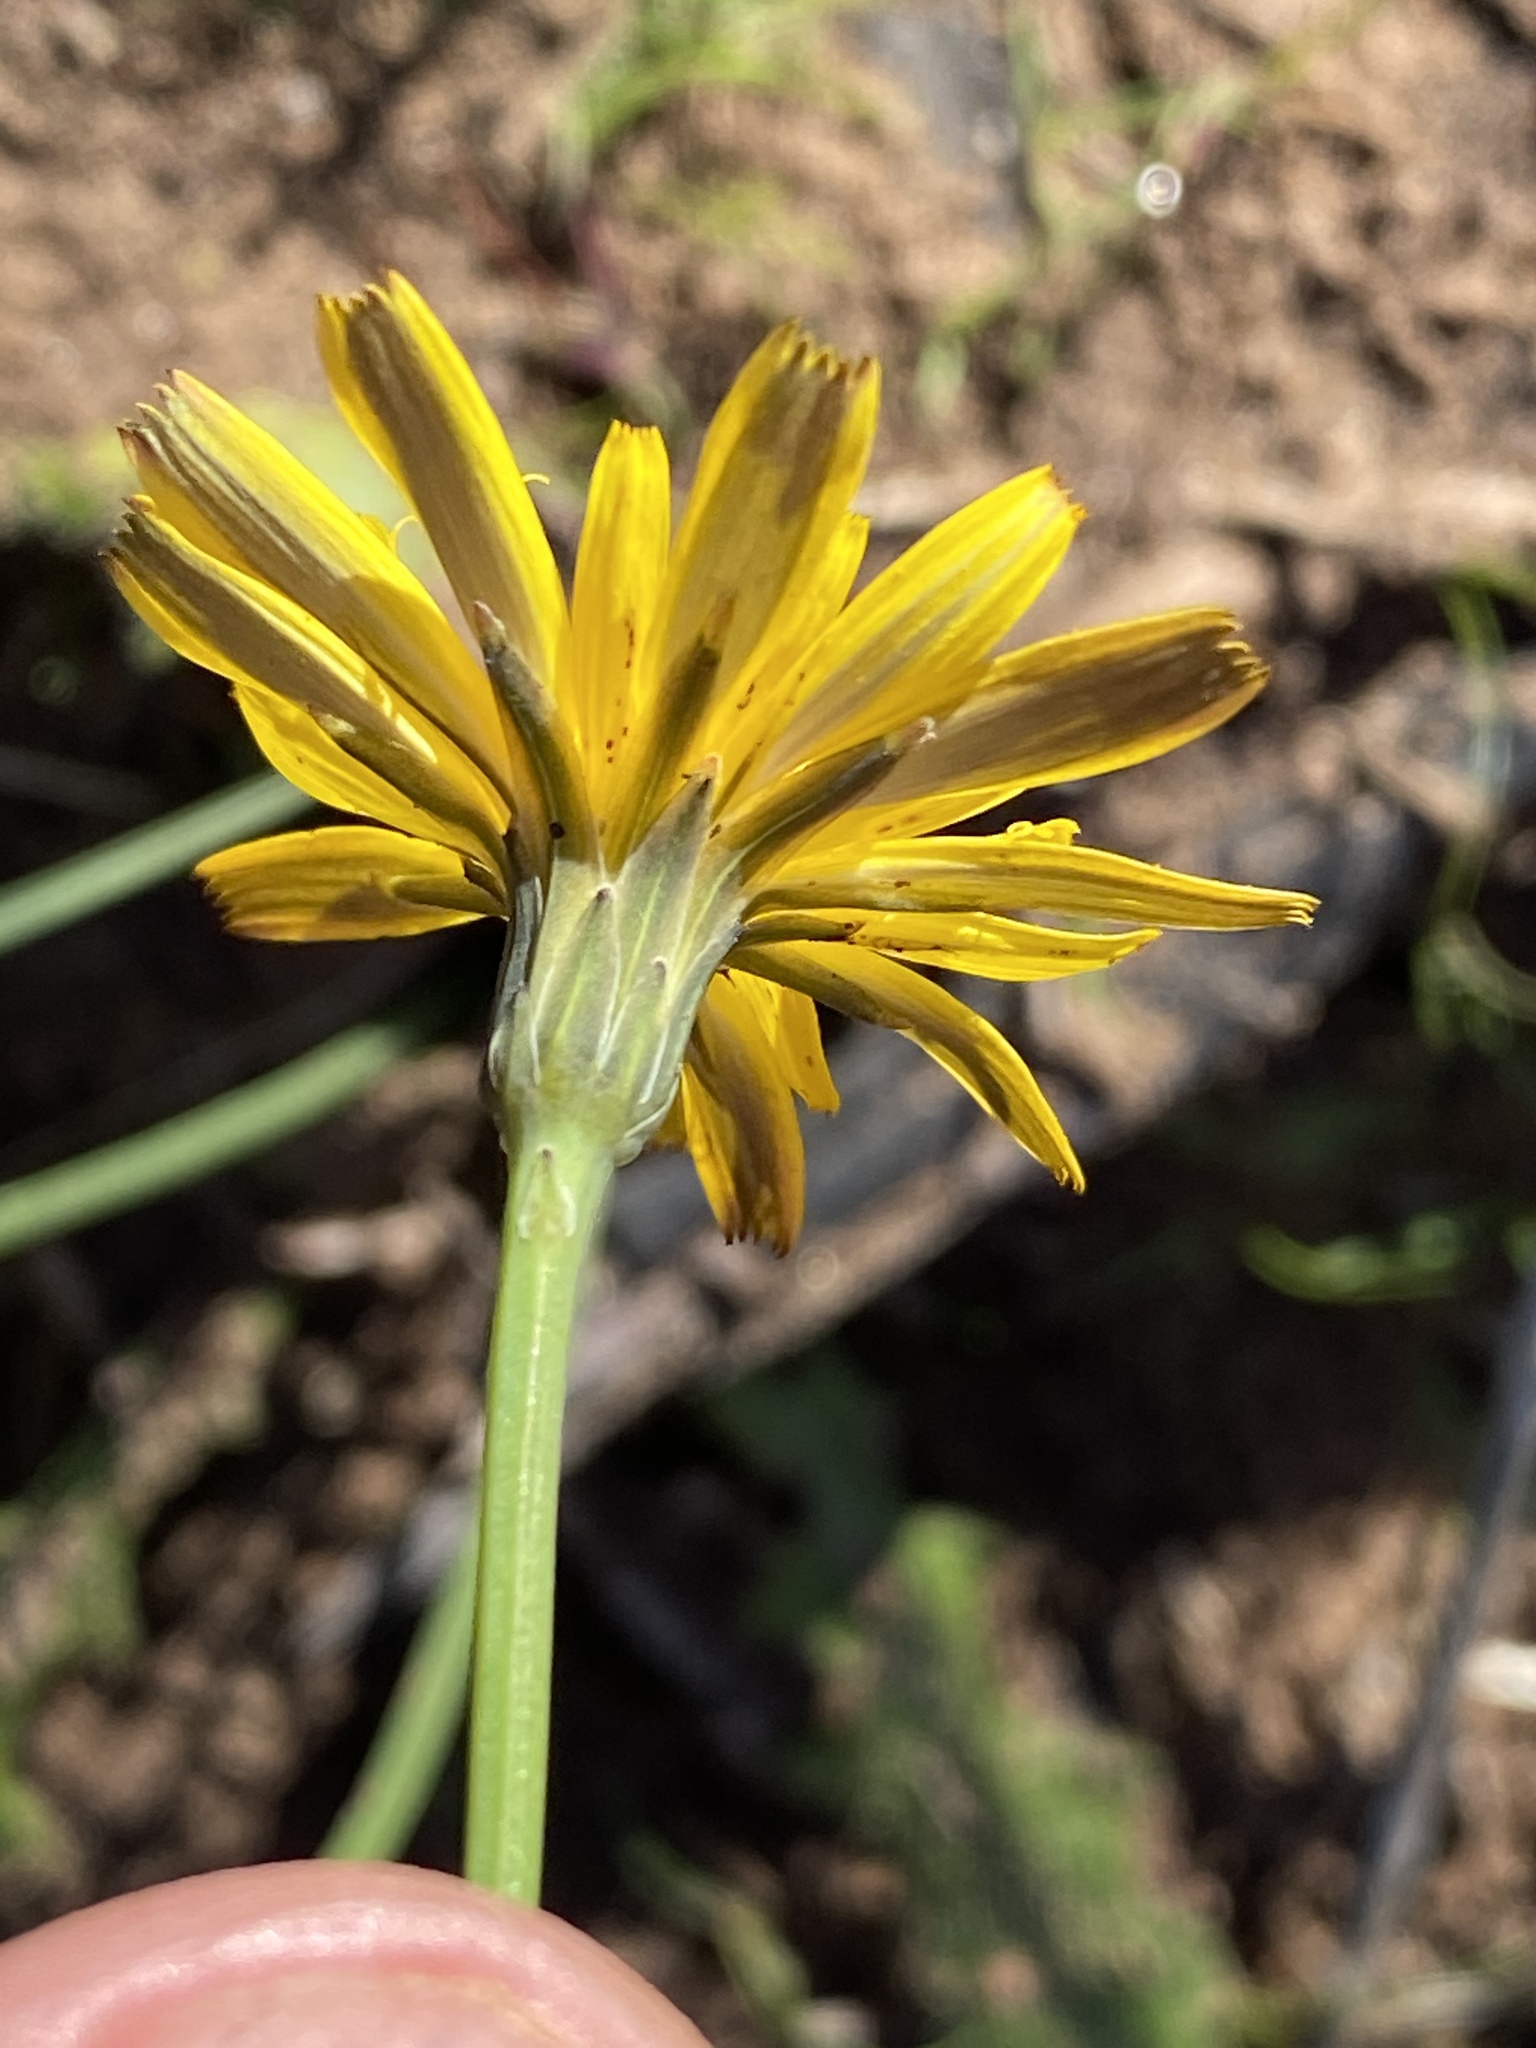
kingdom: Plantae
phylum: Tracheophyta
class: Magnoliopsida
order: Asterales
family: Asteraceae
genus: Hypochaeris
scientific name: Hypochaeris radicata
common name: Flatweed
